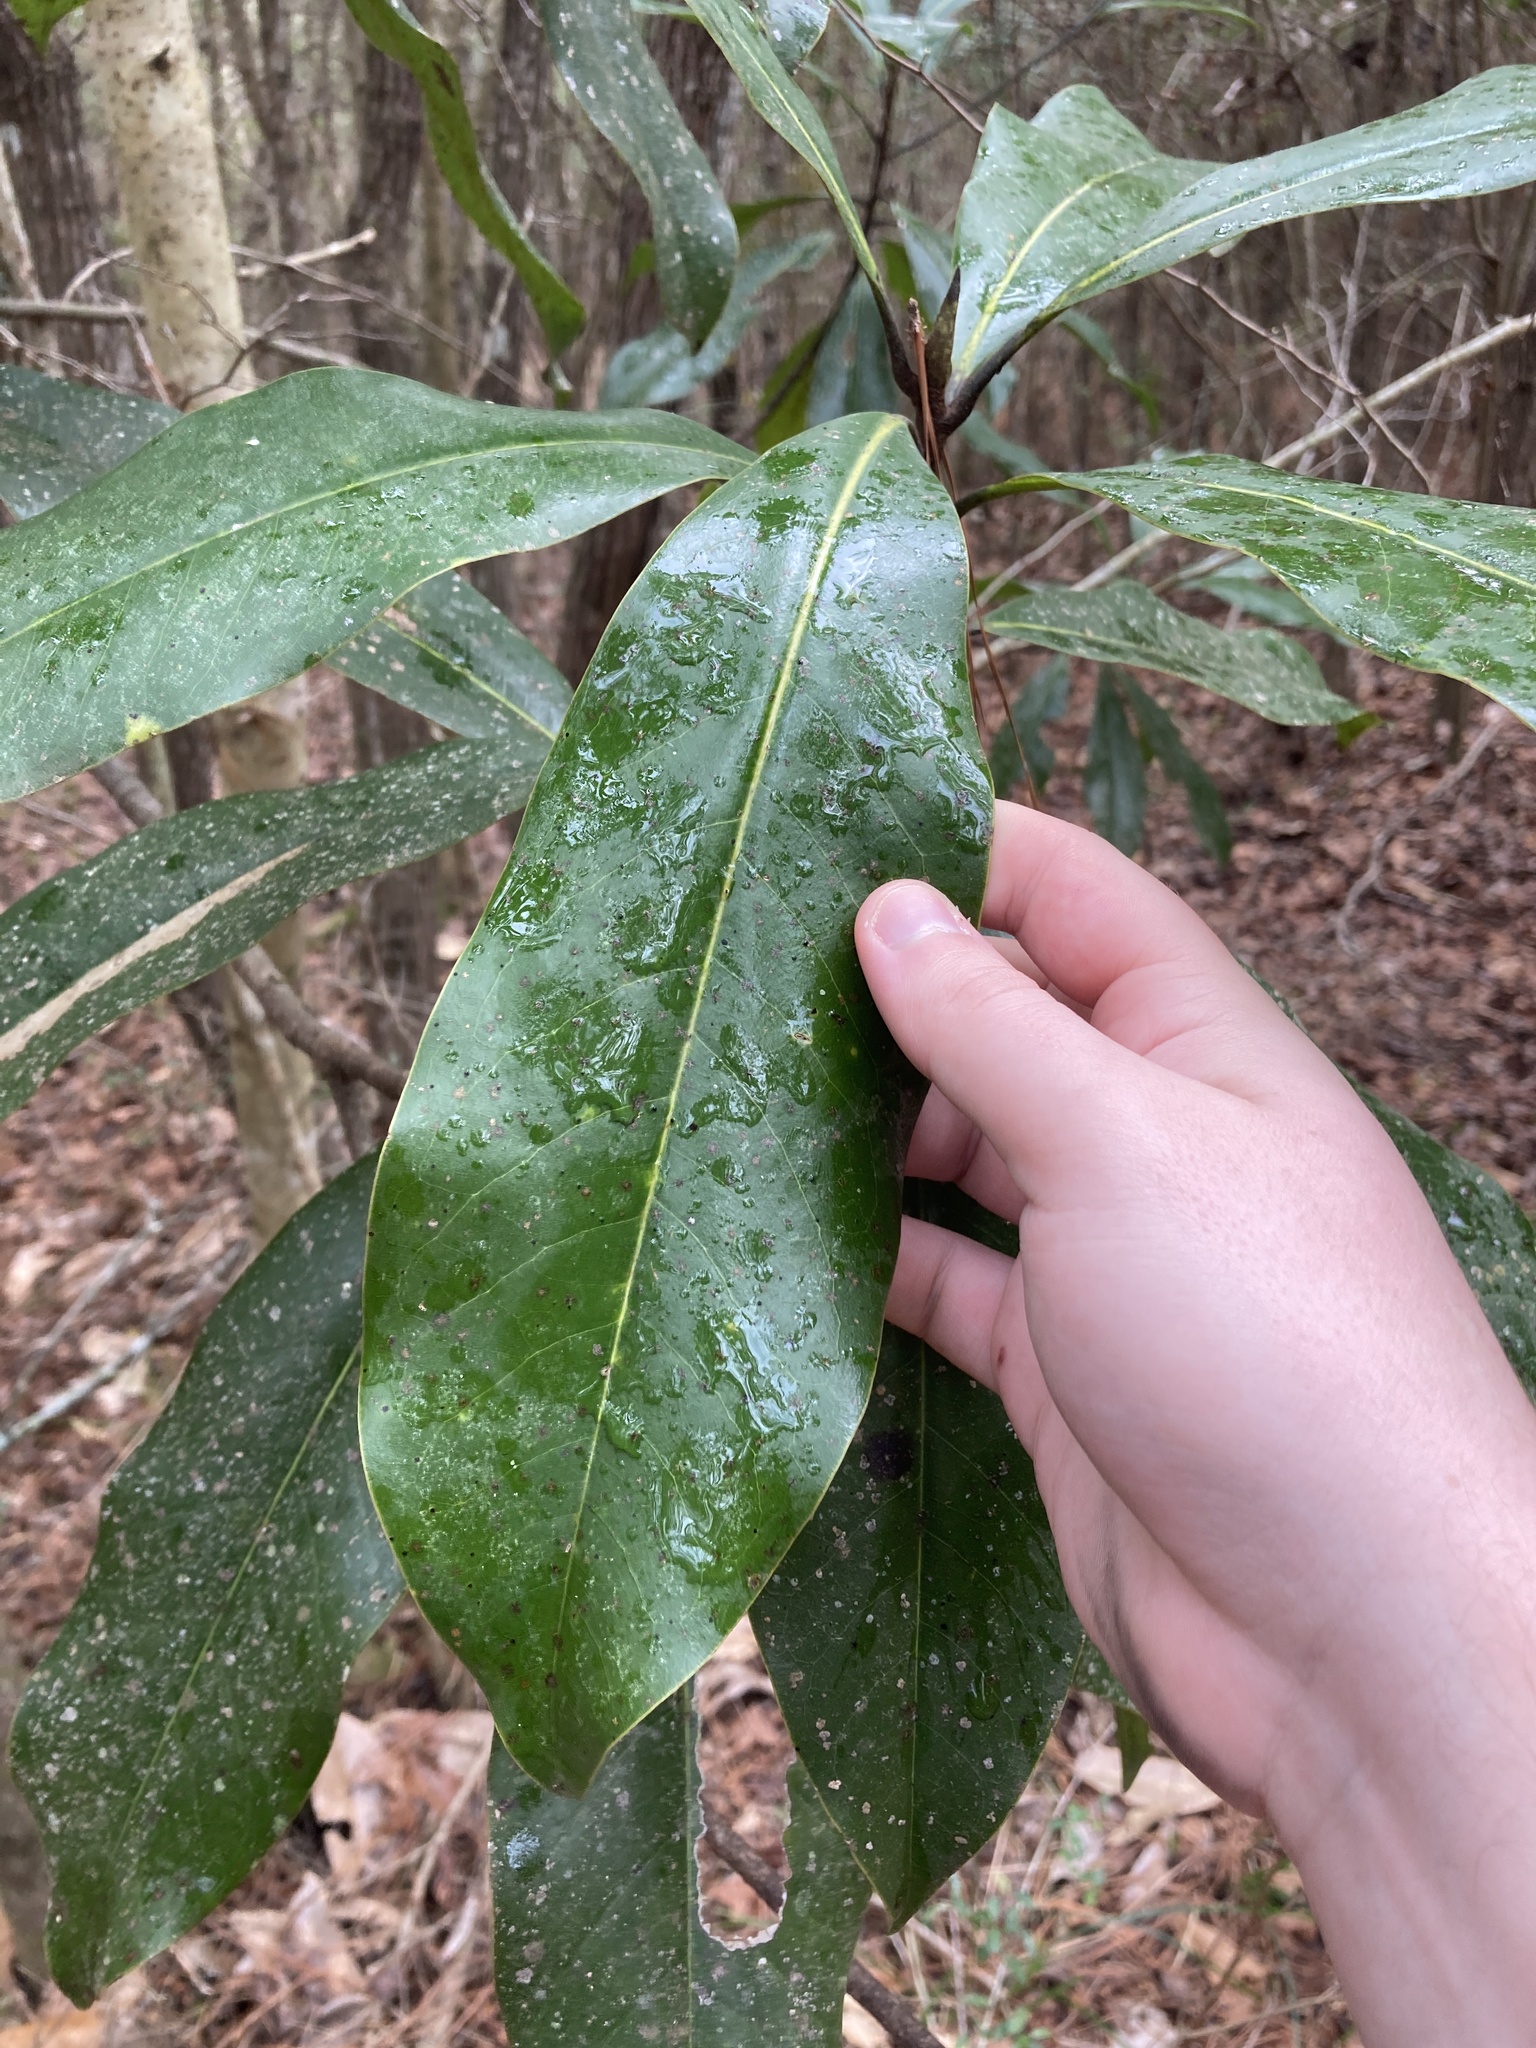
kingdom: Plantae
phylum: Tracheophyta
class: Magnoliopsida
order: Magnoliales
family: Magnoliaceae
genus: Magnolia
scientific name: Magnolia grandiflora
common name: Southern magnolia
